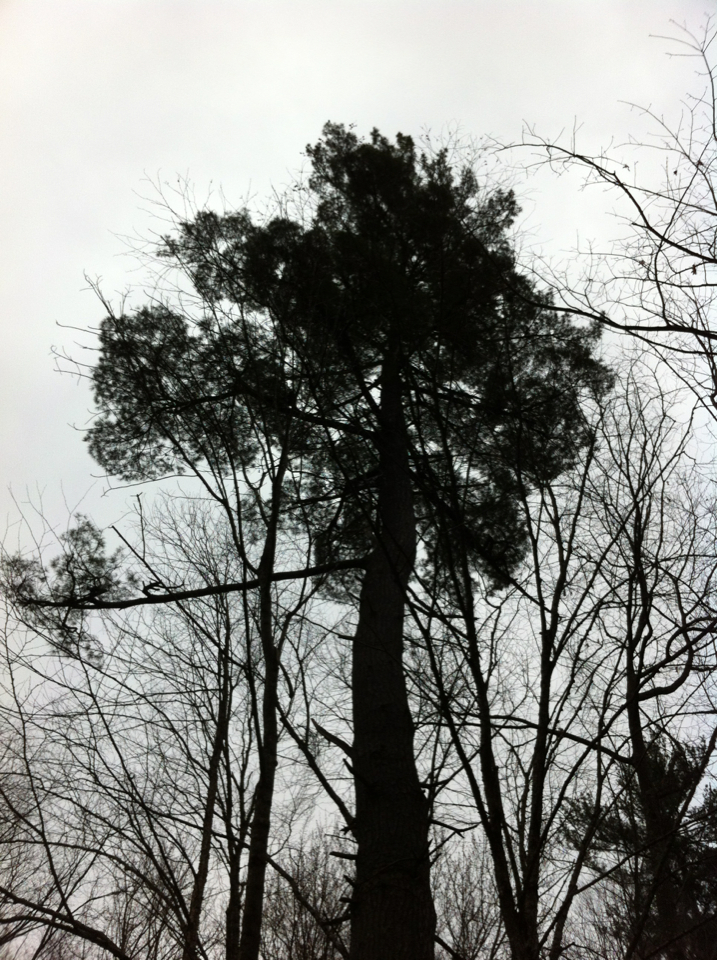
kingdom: Plantae
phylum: Tracheophyta
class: Pinopsida
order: Pinales
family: Pinaceae
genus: Pinus
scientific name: Pinus strobus
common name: Weymouth pine
